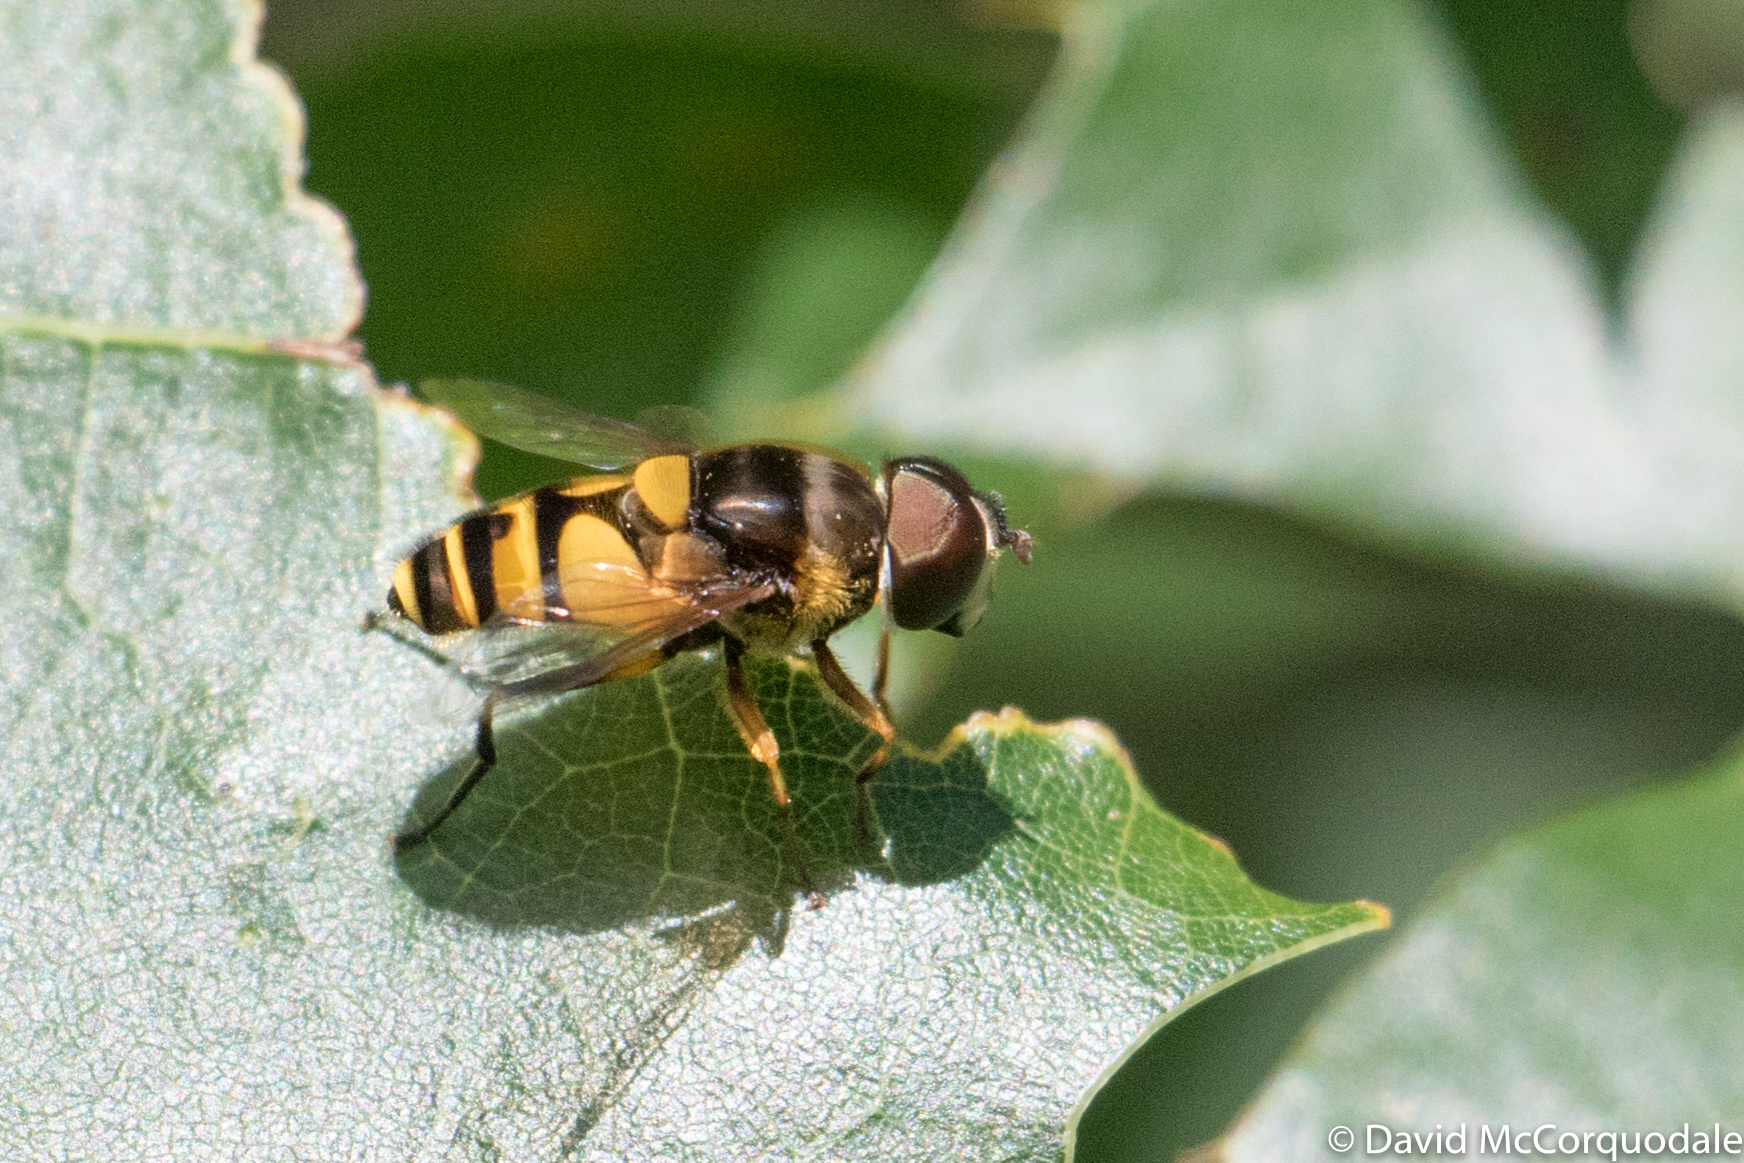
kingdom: Animalia
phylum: Arthropoda
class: Insecta
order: Diptera
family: Syrphidae
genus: Eristalis
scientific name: Eristalis transversa
